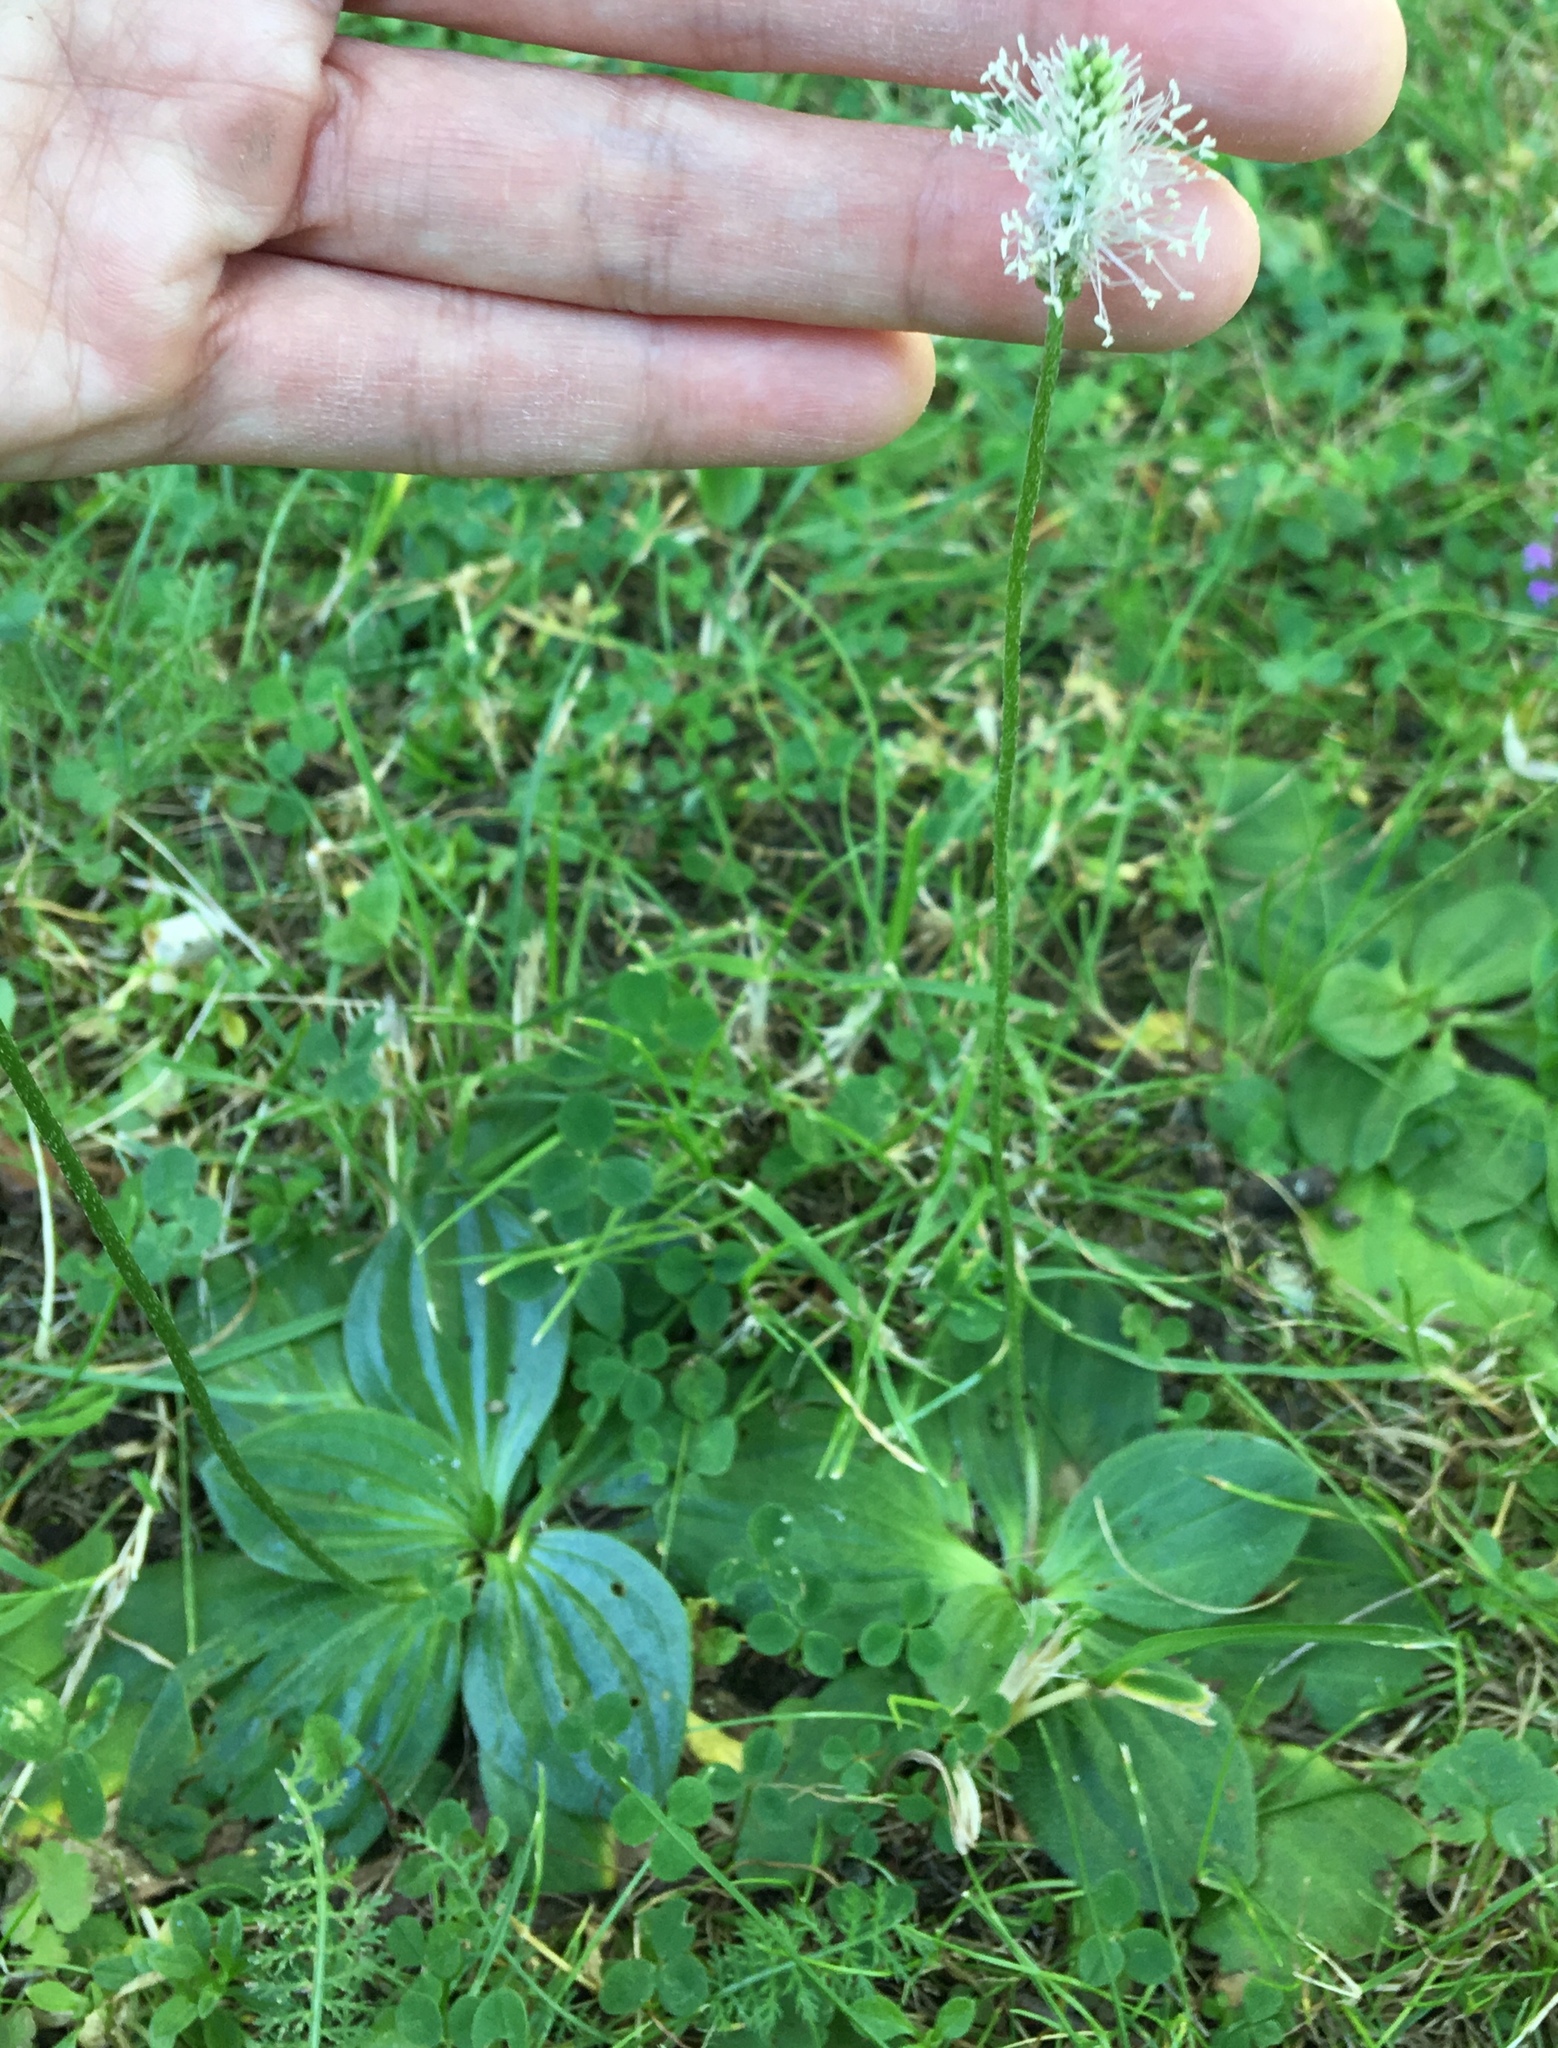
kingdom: Plantae
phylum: Tracheophyta
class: Magnoliopsida
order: Lamiales
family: Plantaginaceae
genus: Plantago
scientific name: Plantago media
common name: Hoary plantain
